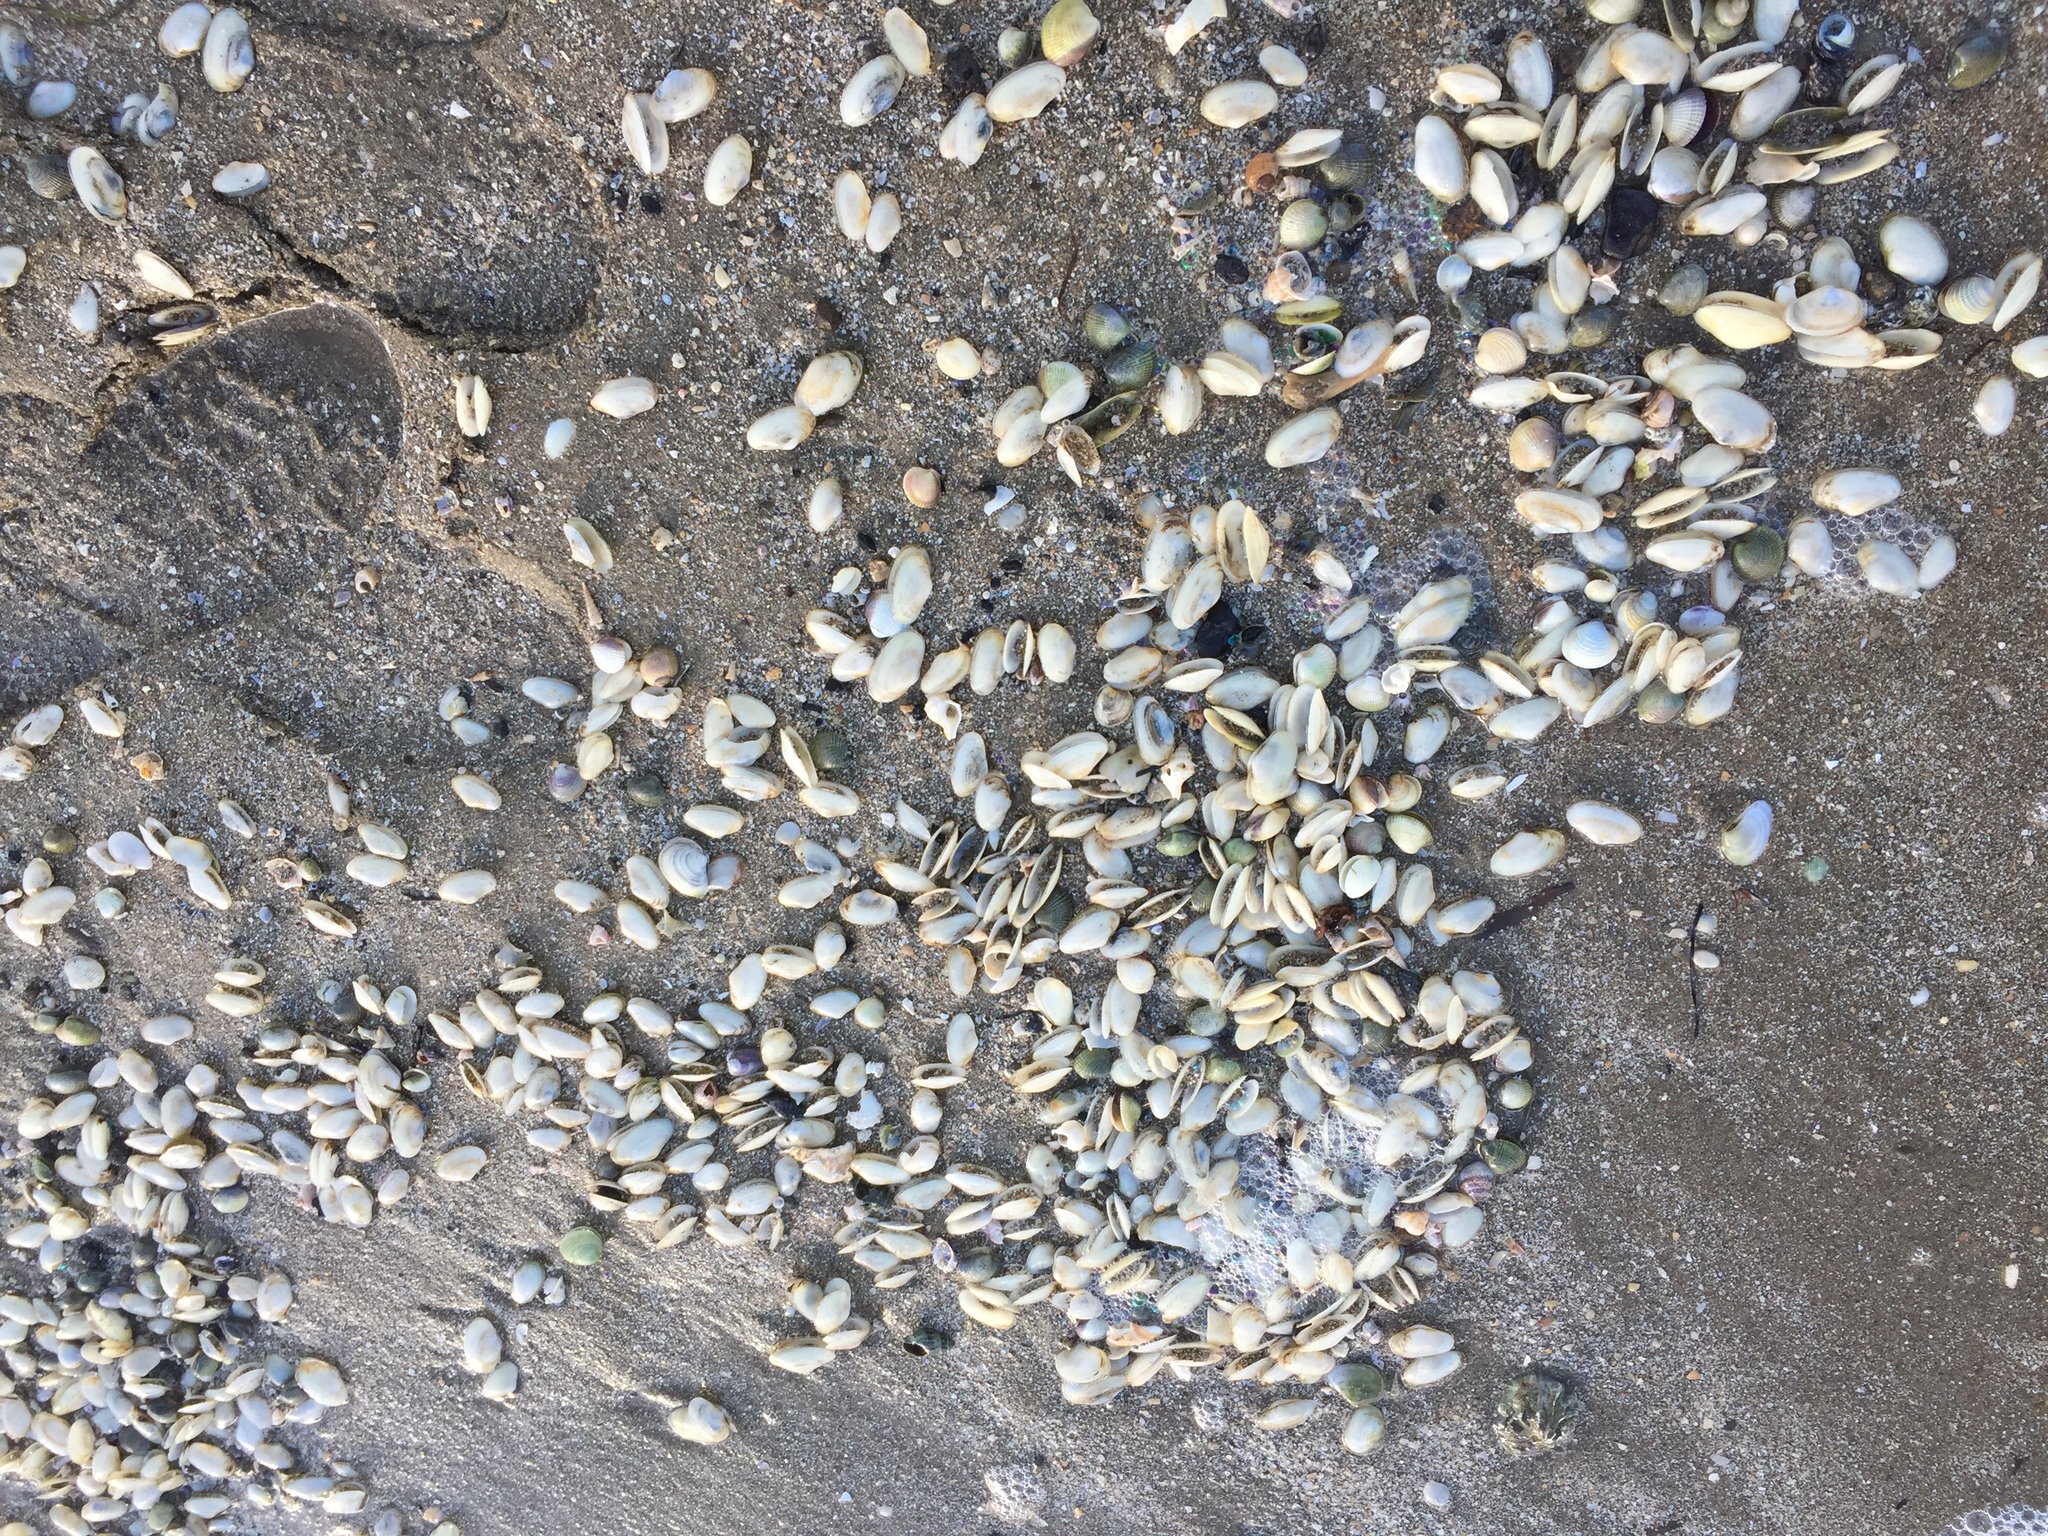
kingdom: Animalia
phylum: Mollusca
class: Bivalvia
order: Venerida
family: Mesodesmatidae
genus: Paphies
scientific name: Paphies australis
